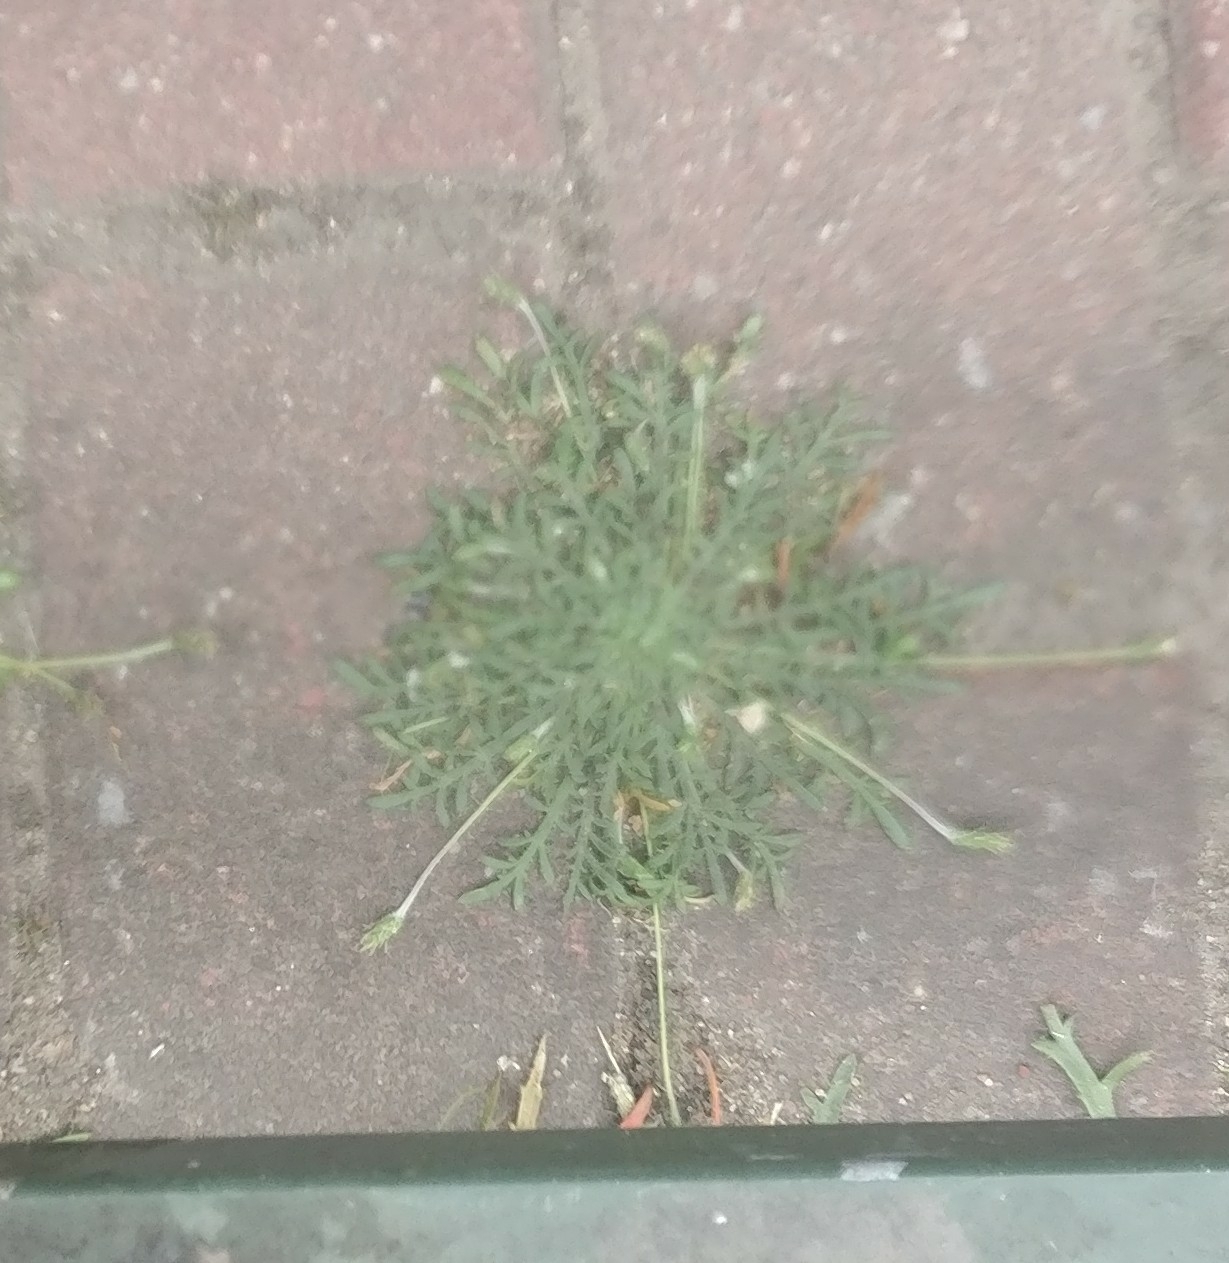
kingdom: Plantae
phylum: Tracheophyta
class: Magnoliopsida
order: Lamiales
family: Plantaginaceae
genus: Plantago
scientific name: Plantago coronopus
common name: Buck's-horn plantain
